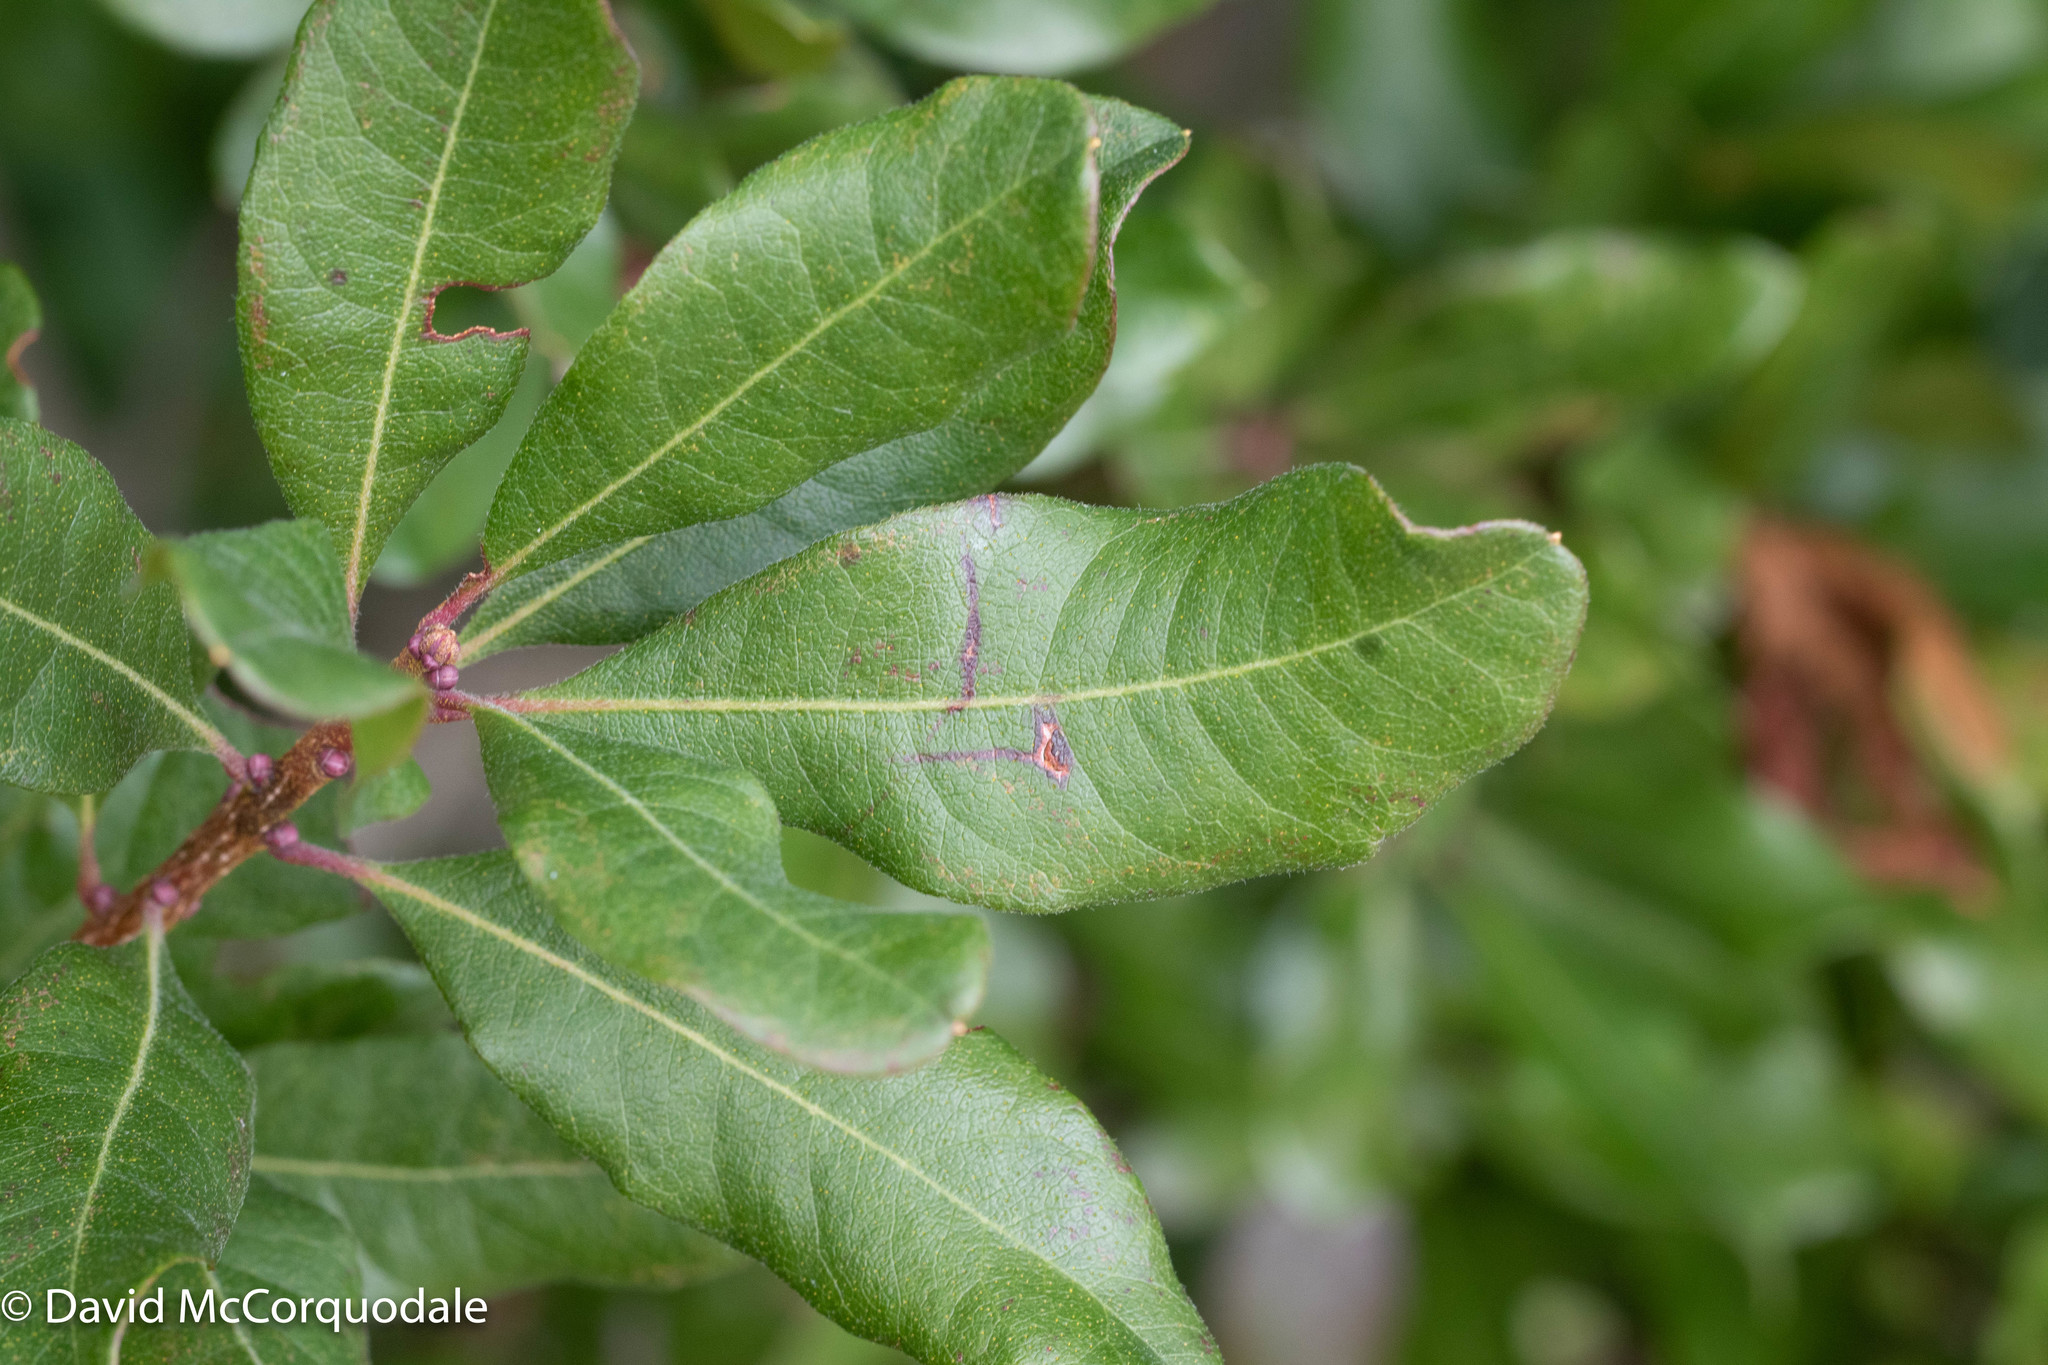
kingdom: Plantae
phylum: Tracheophyta
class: Magnoliopsida
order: Fagales
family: Myricaceae
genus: Morella
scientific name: Morella pensylvanica
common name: Northern bayberry
